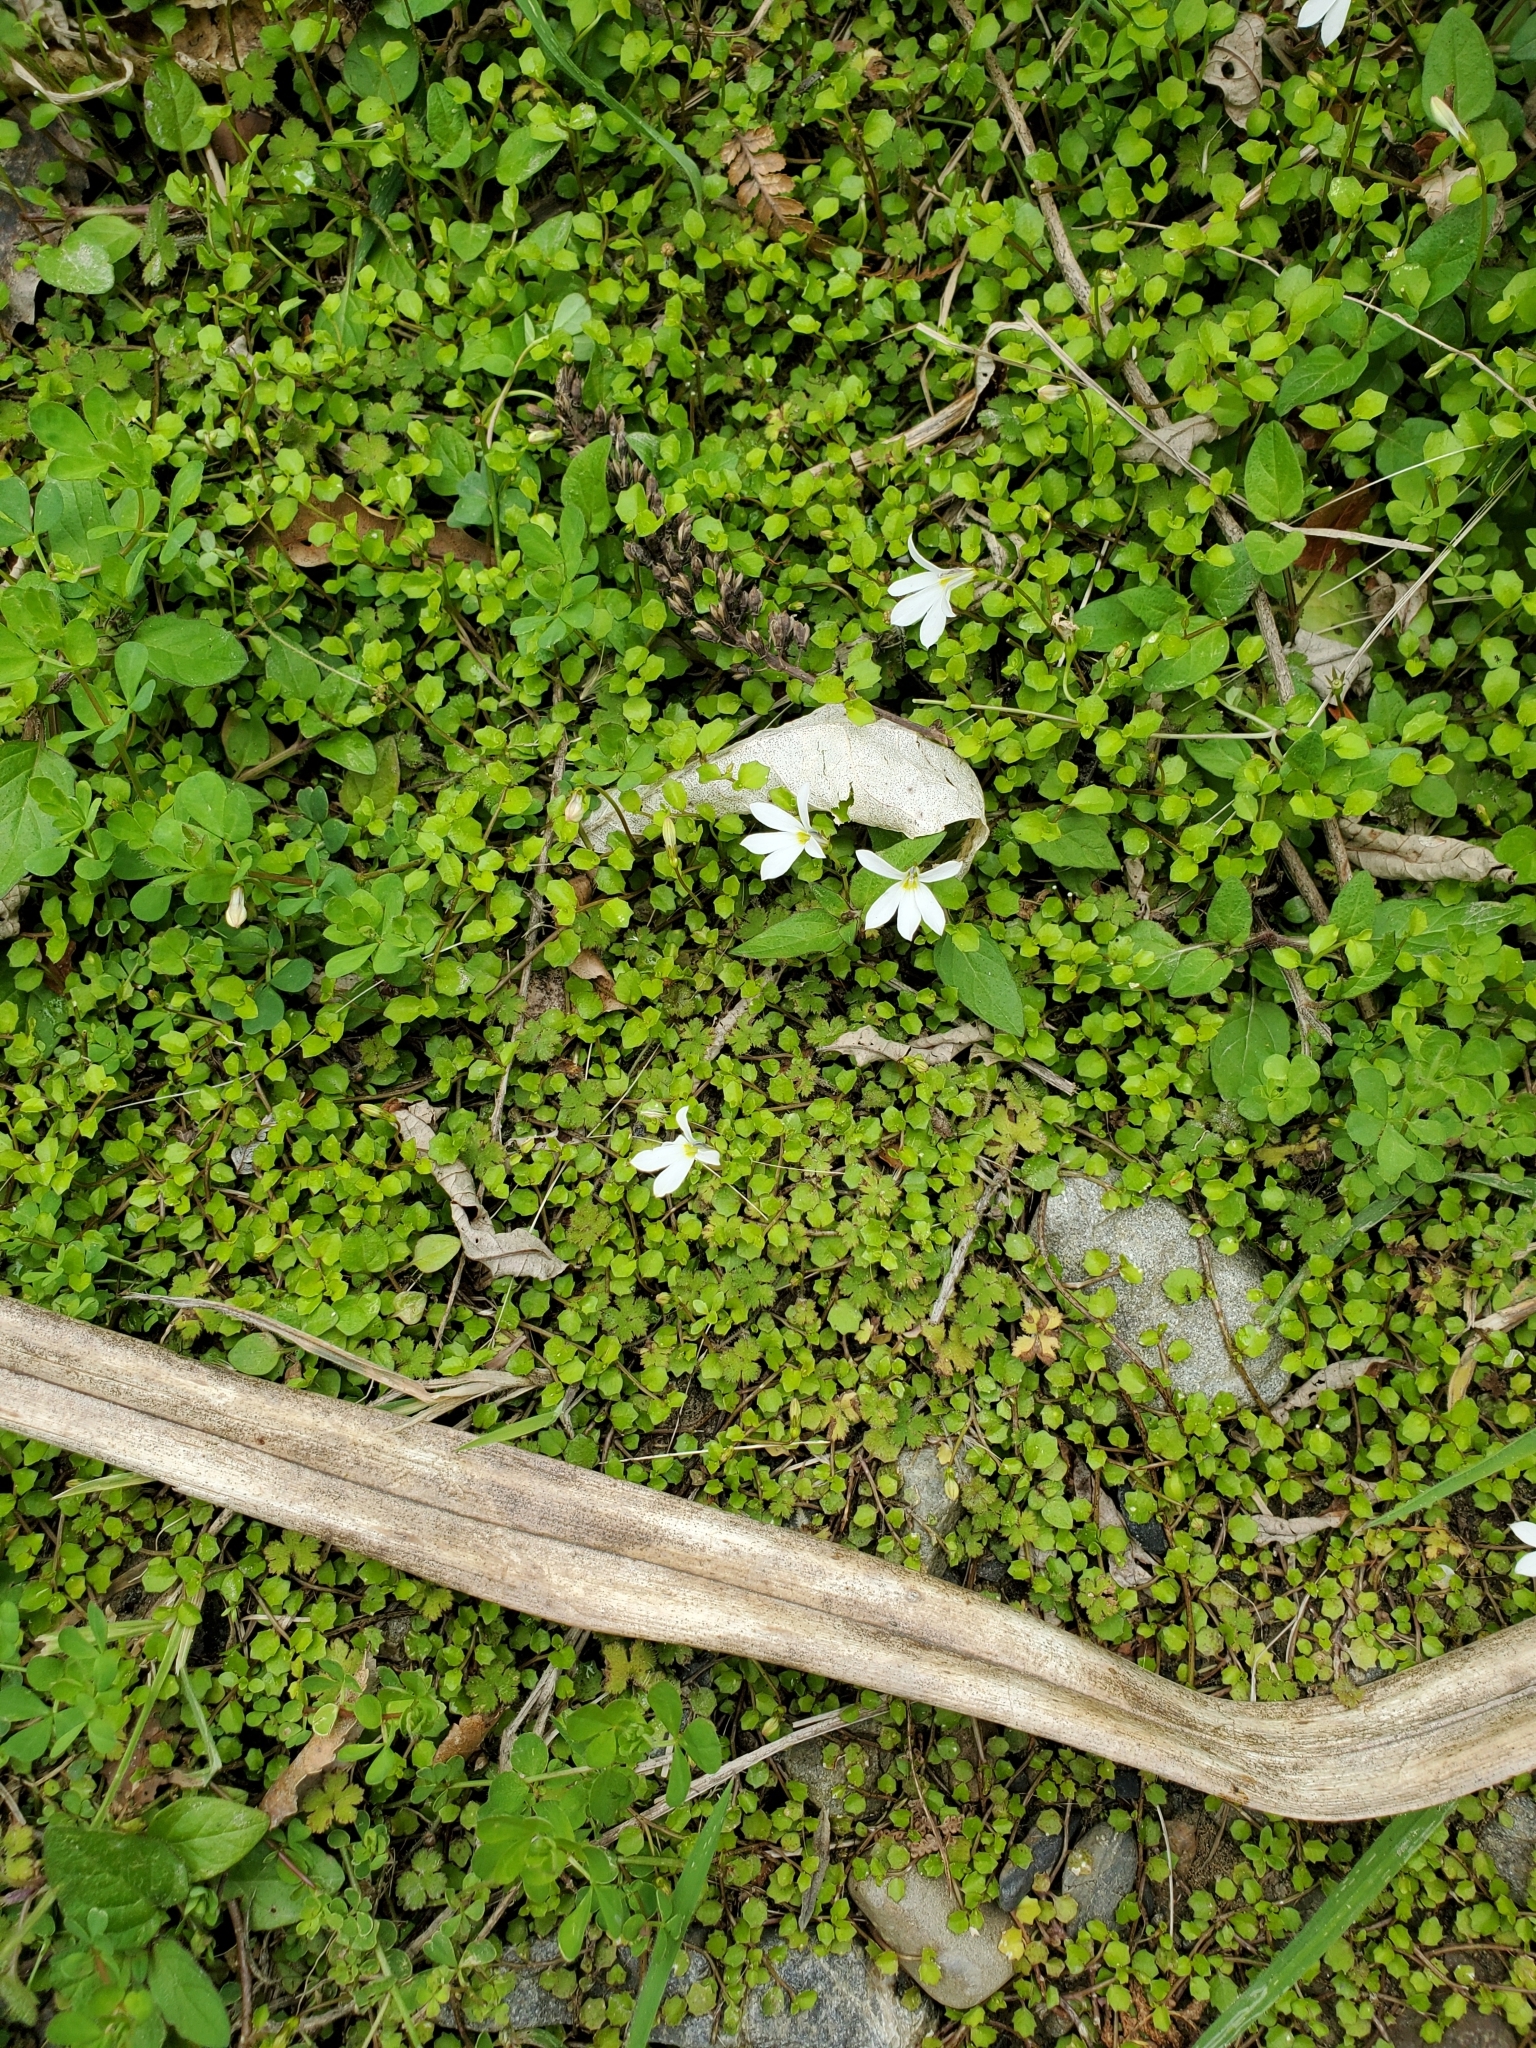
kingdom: Plantae
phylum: Tracheophyta
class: Magnoliopsida
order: Asterales
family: Campanulaceae
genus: Lobelia
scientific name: Lobelia angulata
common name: Lawn lobelia
